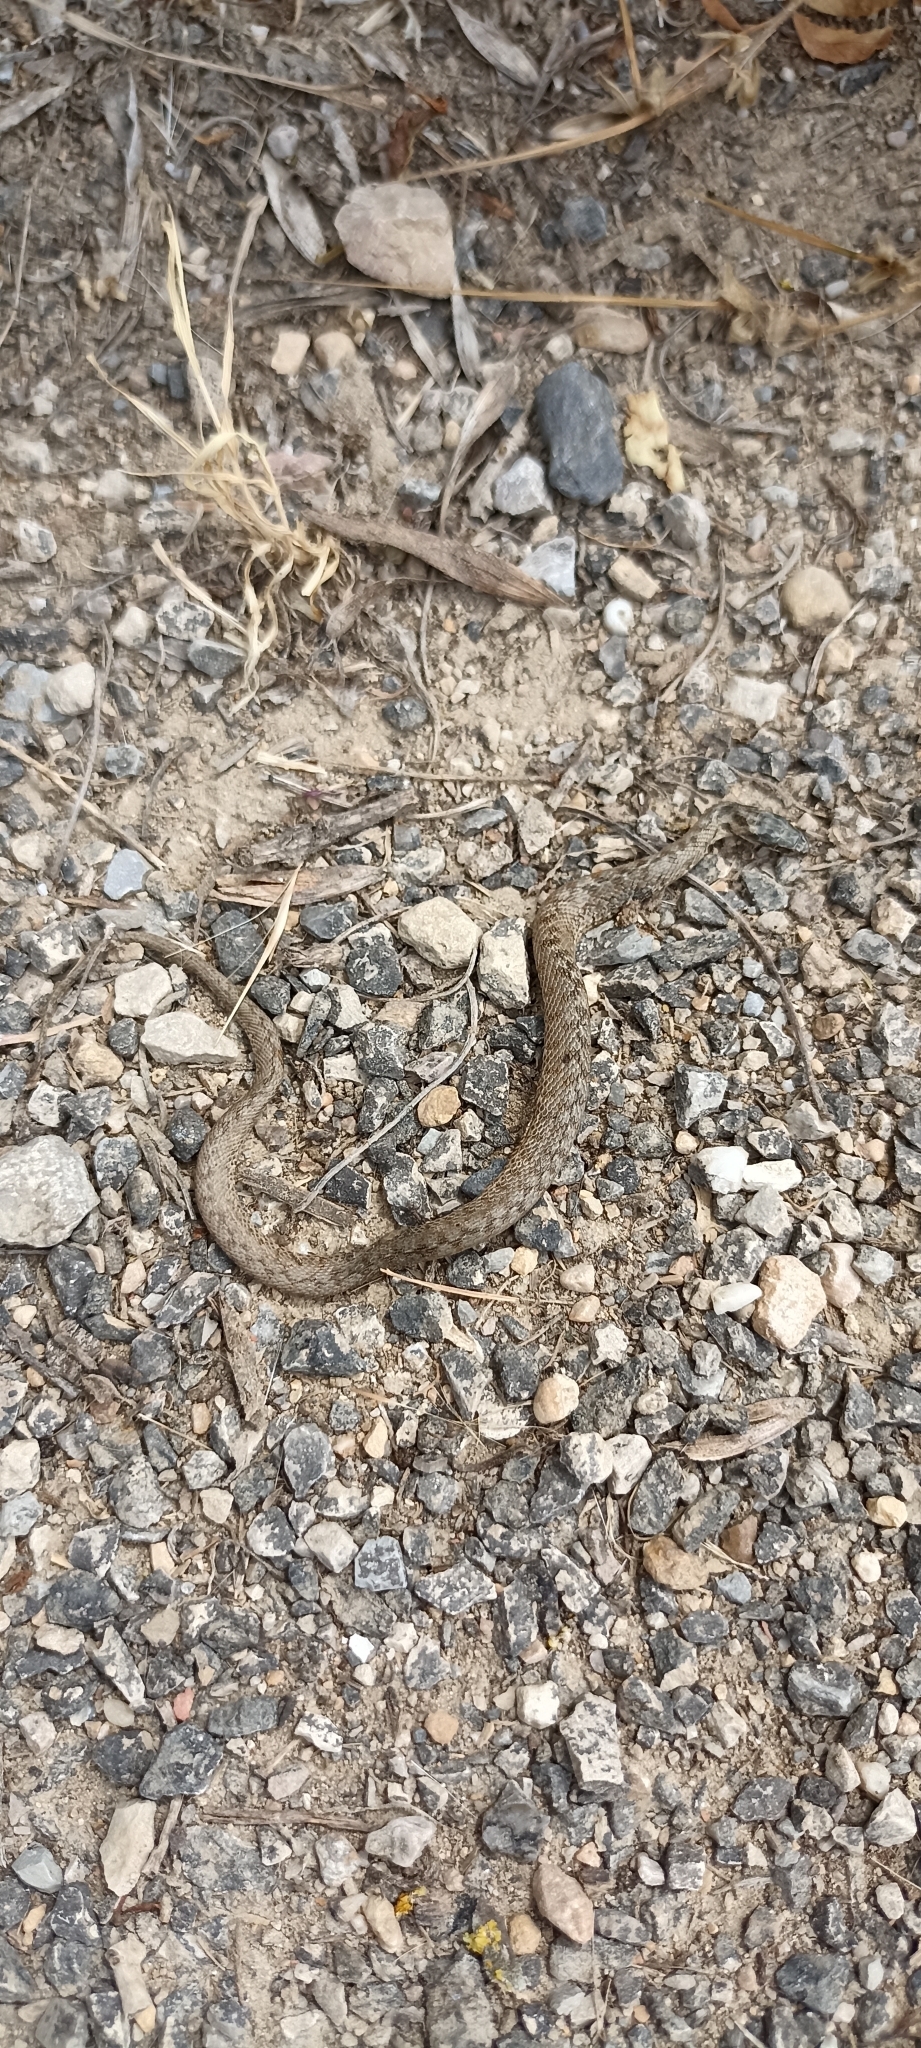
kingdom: Animalia
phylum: Chordata
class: Squamata
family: Colubridae
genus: Natrix
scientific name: Natrix maura
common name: Viperine water snake
